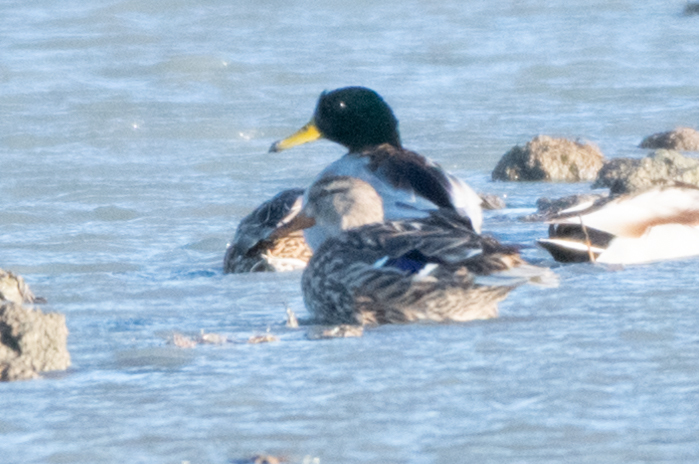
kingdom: Animalia
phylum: Chordata
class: Aves
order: Anseriformes
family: Anatidae
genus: Anas
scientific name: Anas platyrhynchos
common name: Mallard
